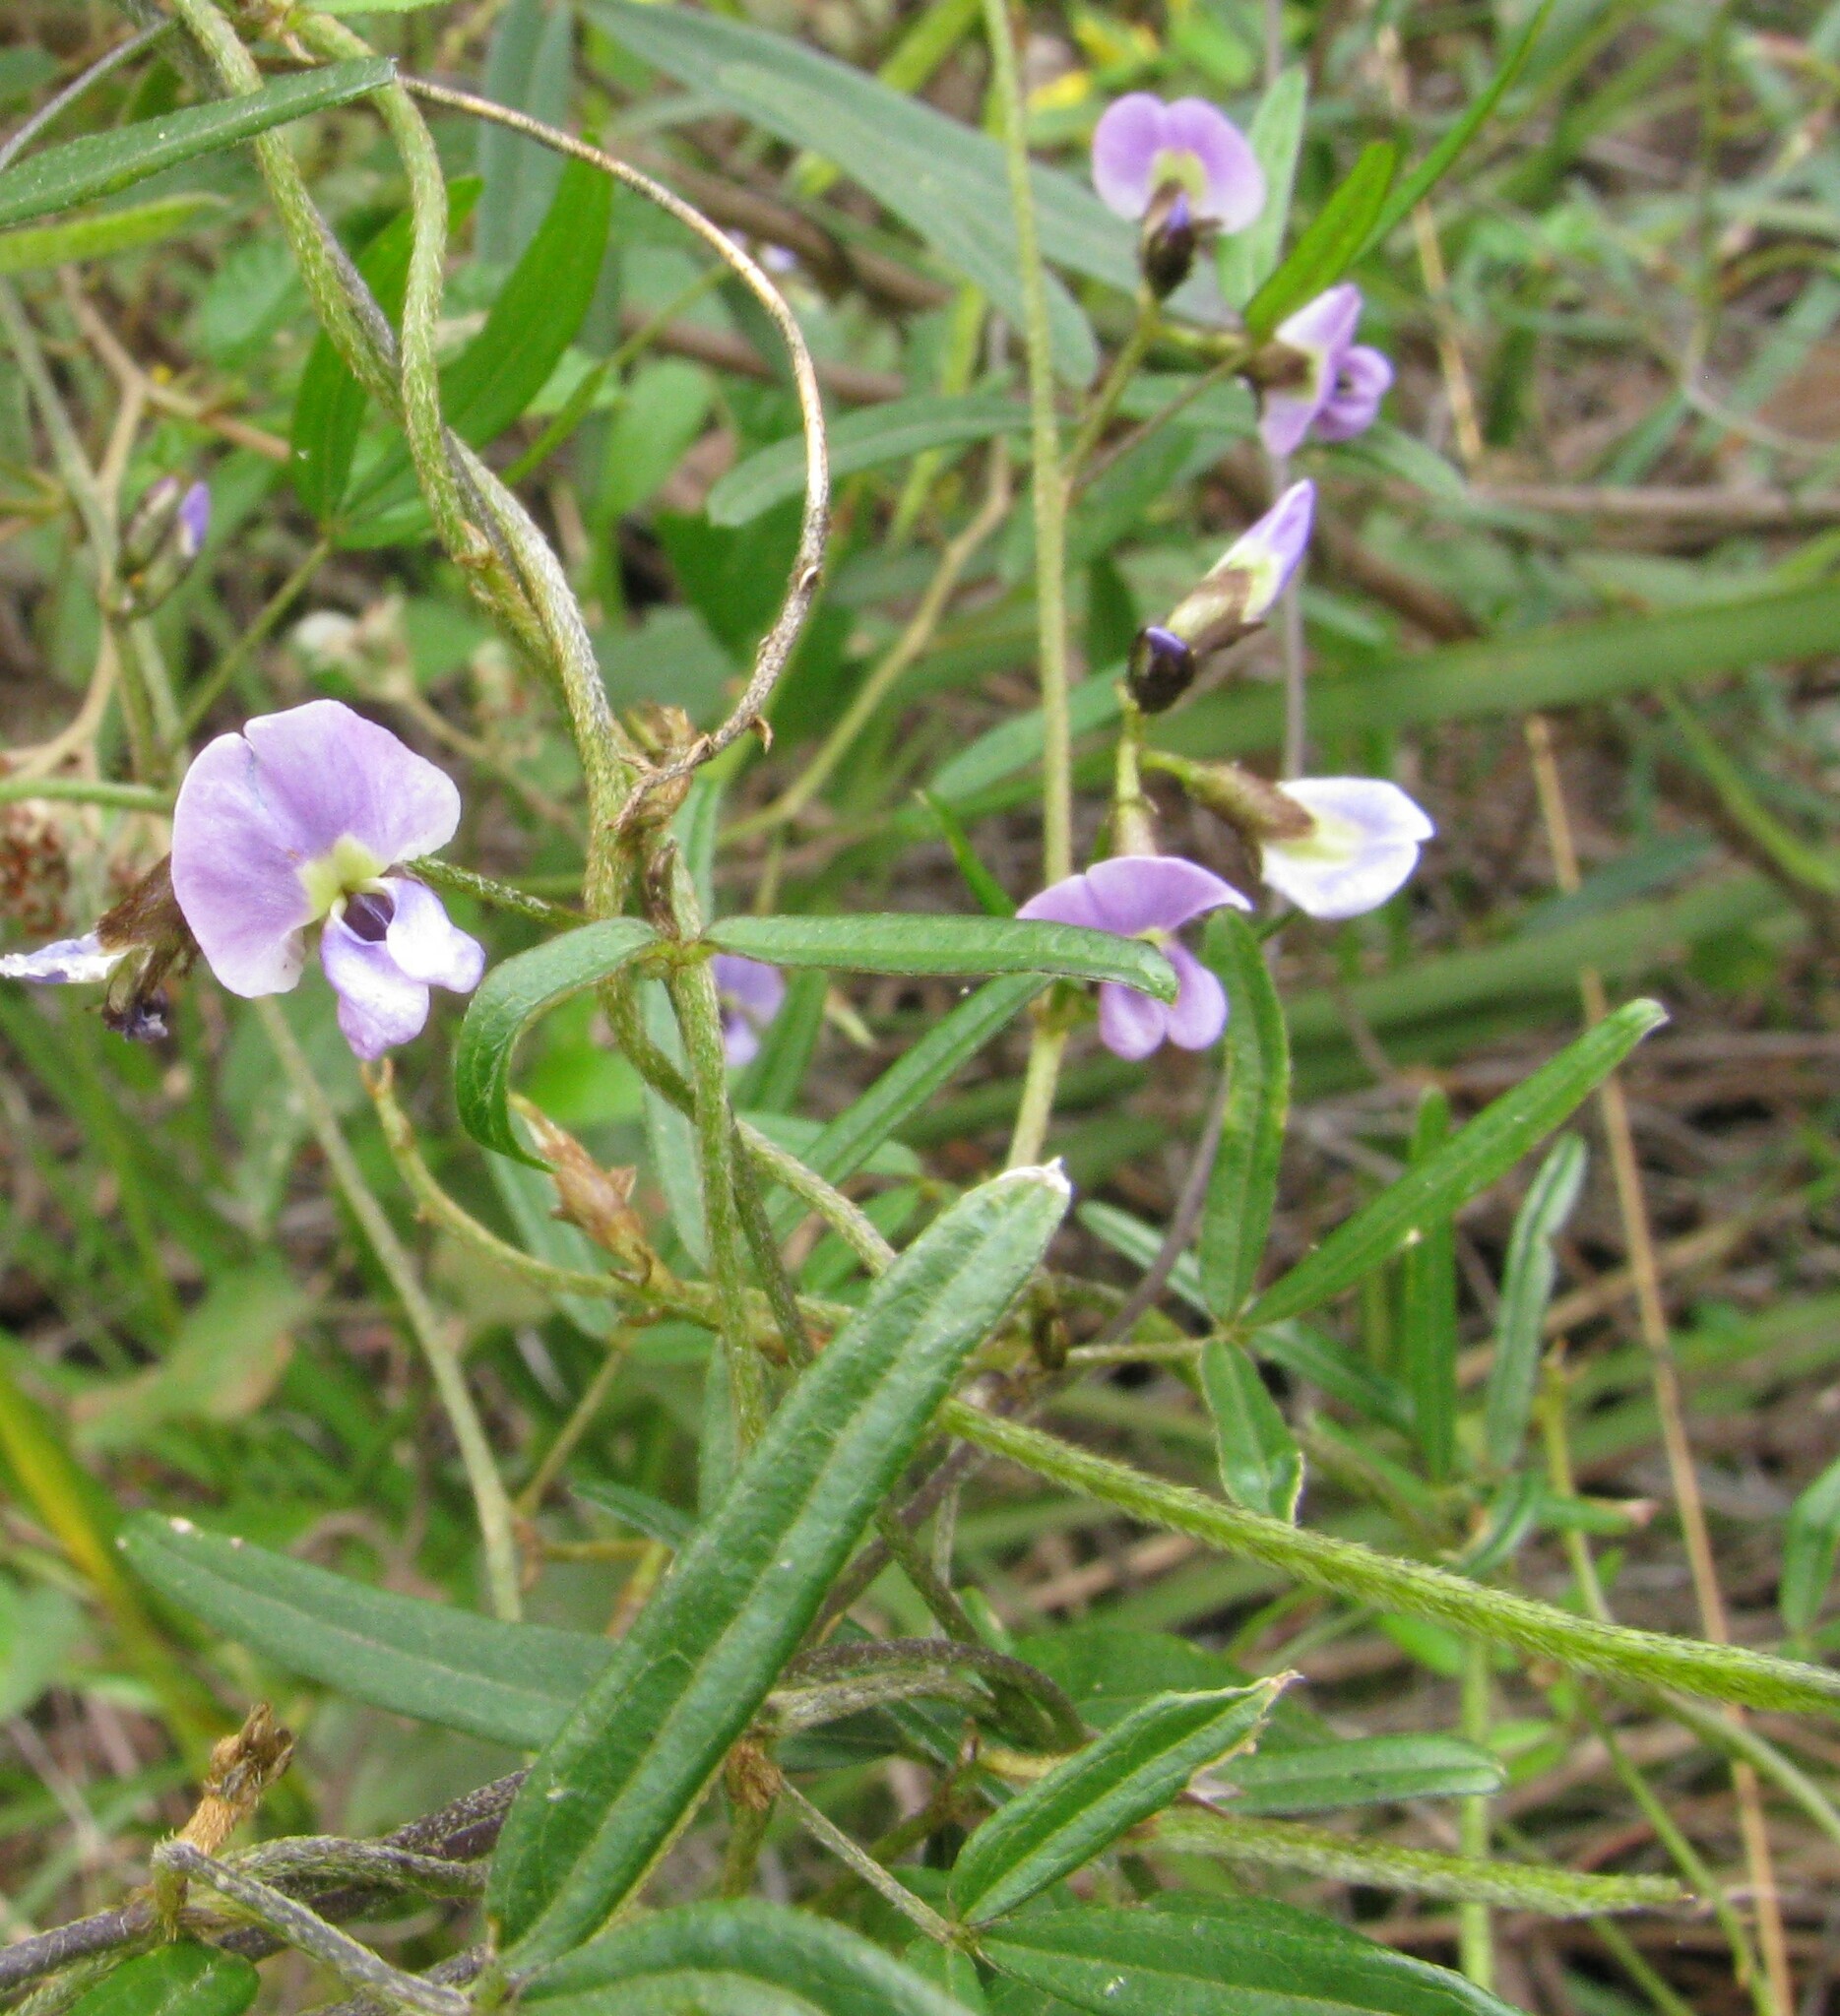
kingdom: Plantae
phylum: Tracheophyta
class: Magnoliopsida
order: Fabales
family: Fabaceae
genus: Glycine
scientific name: Glycine clandestina
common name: Twining glycine
